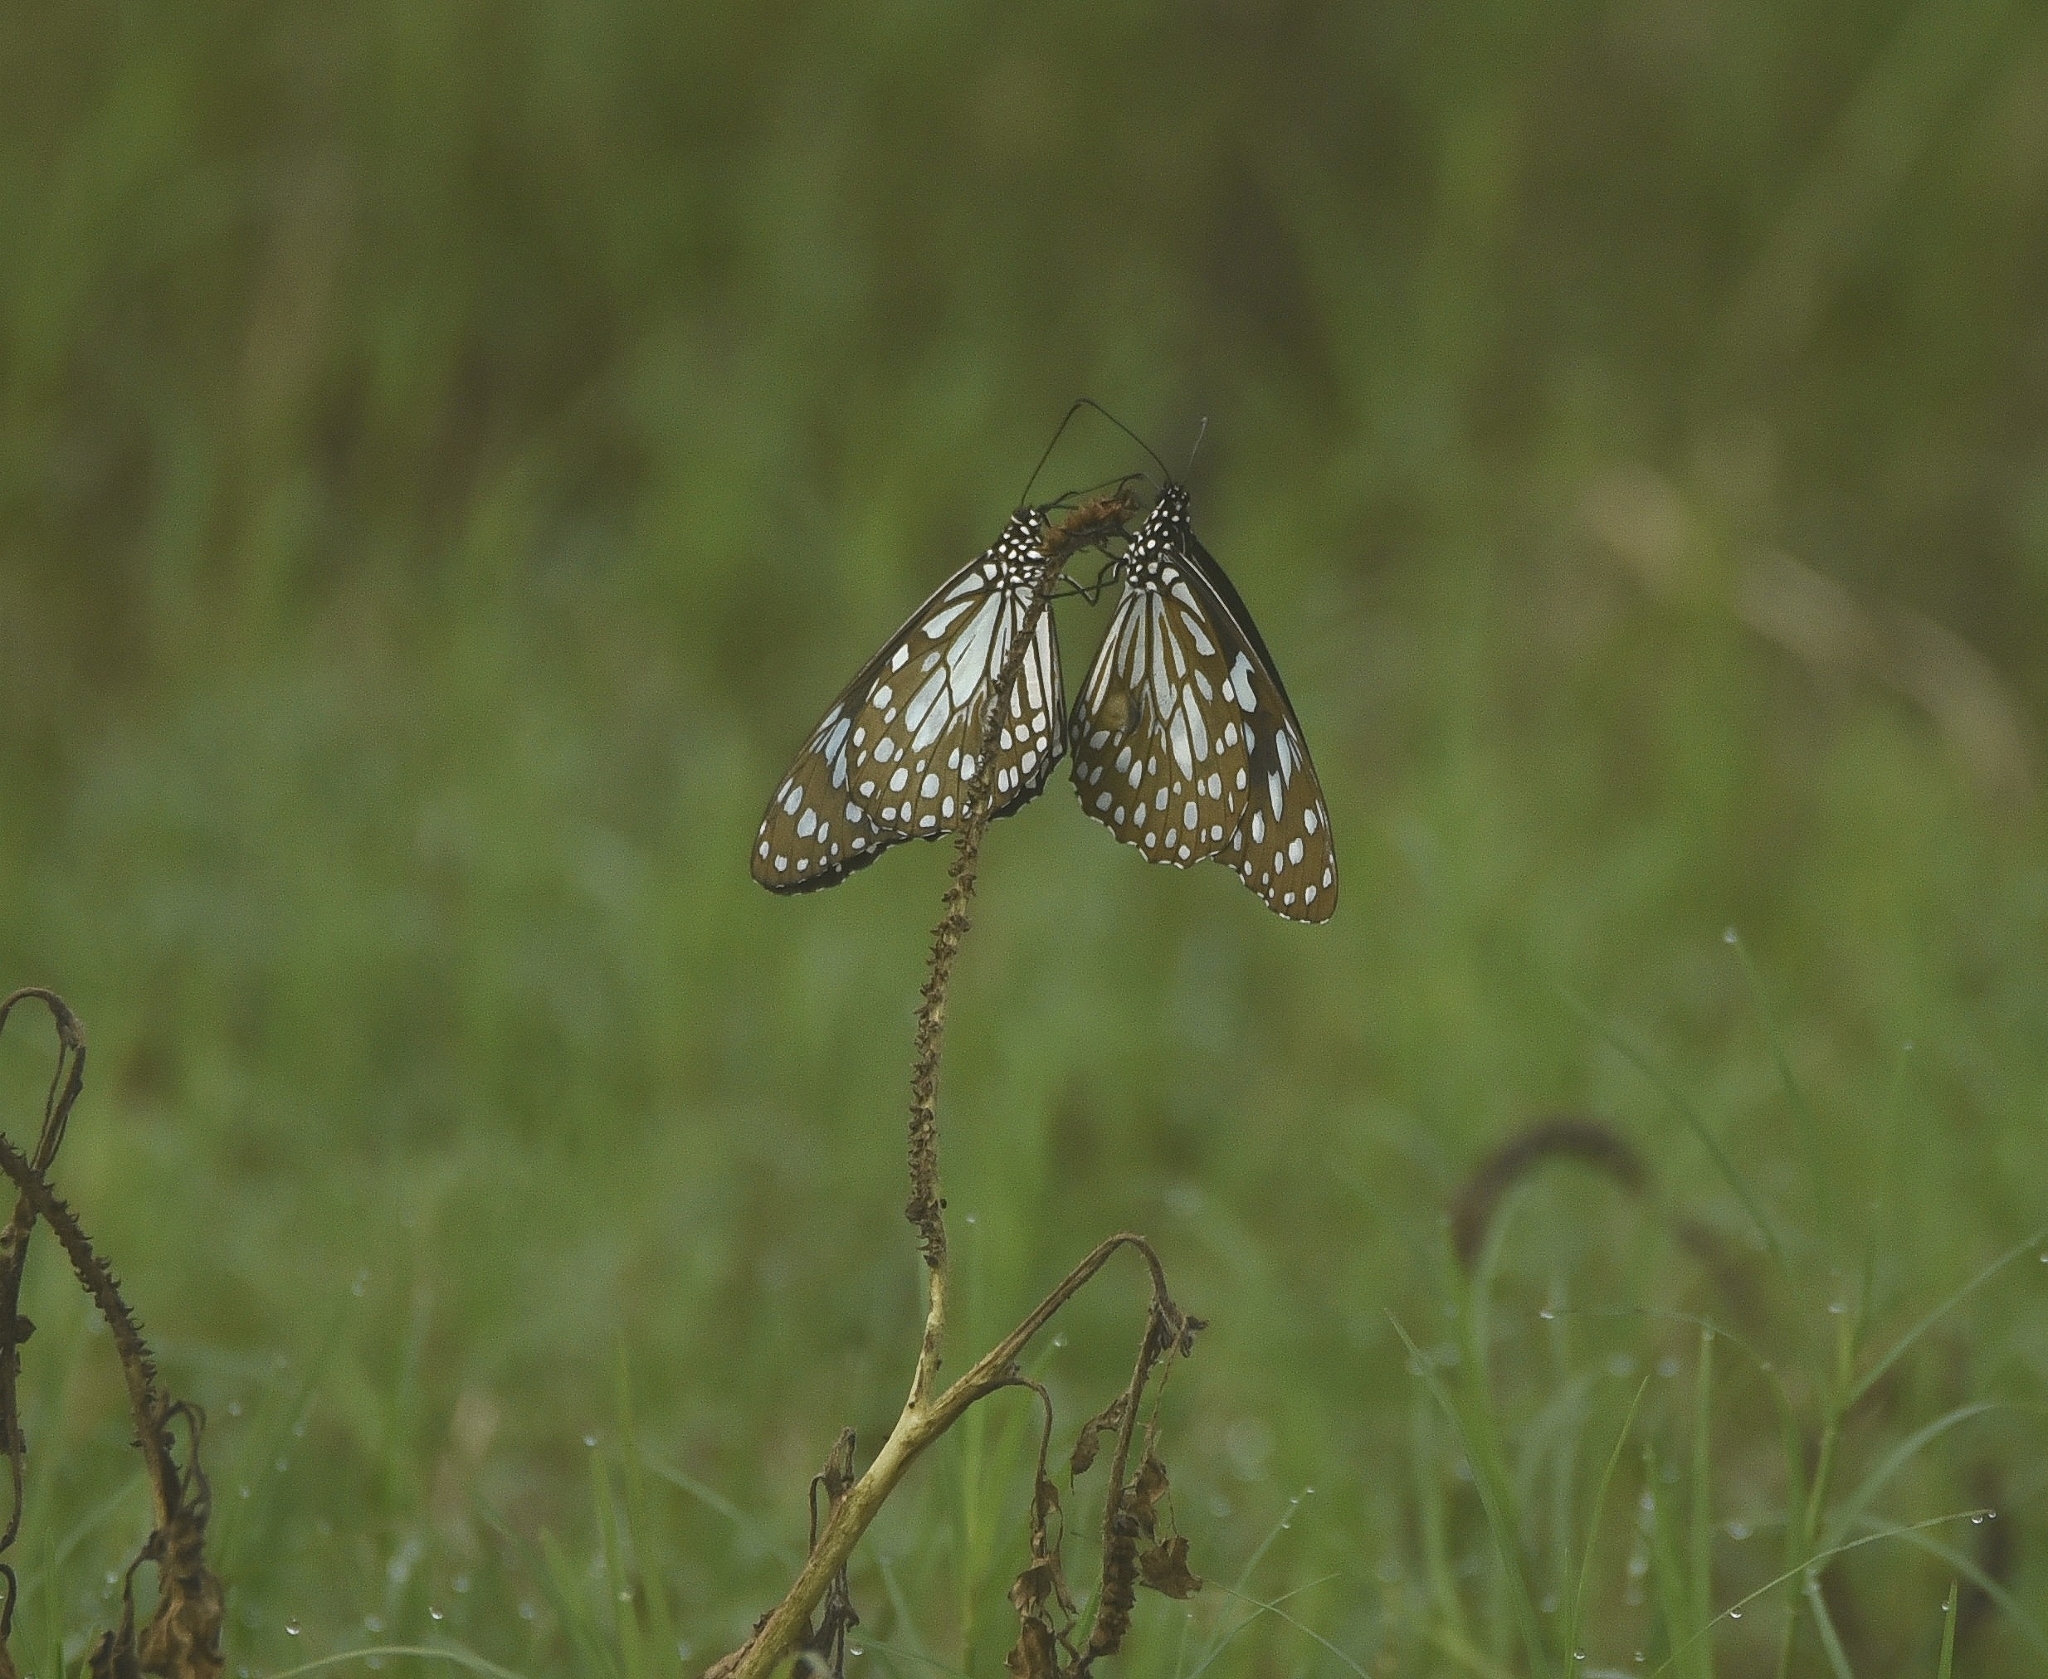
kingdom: Animalia
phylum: Arthropoda
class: Insecta
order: Lepidoptera
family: Nymphalidae
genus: Tirumala
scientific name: Tirumala limniace
